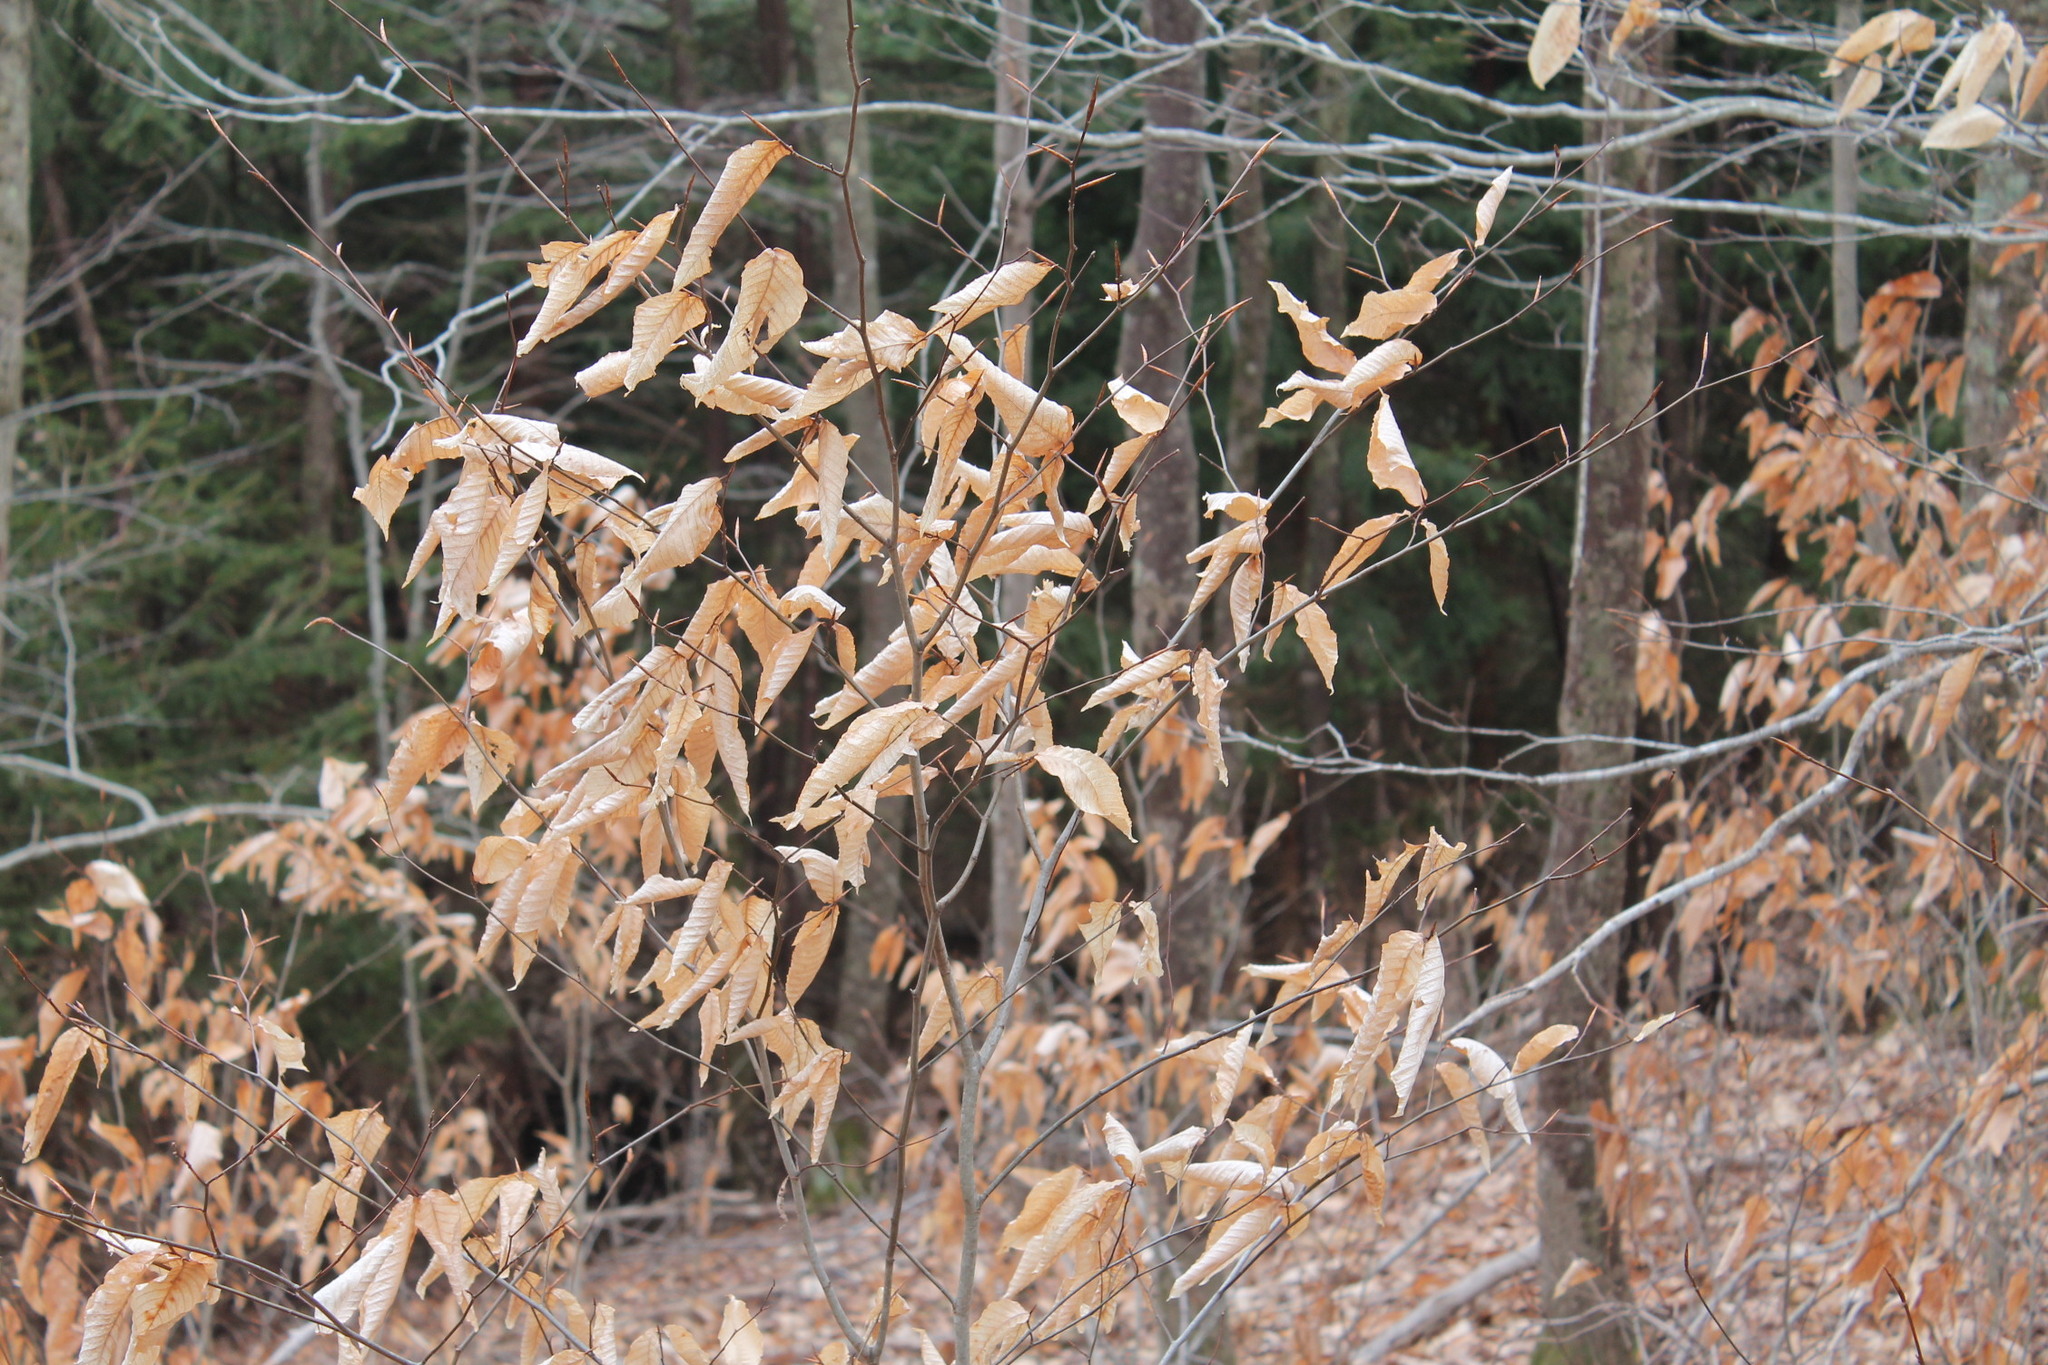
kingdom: Plantae
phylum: Tracheophyta
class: Magnoliopsida
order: Fagales
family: Fagaceae
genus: Fagus
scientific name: Fagus grandifolia
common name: American beech
